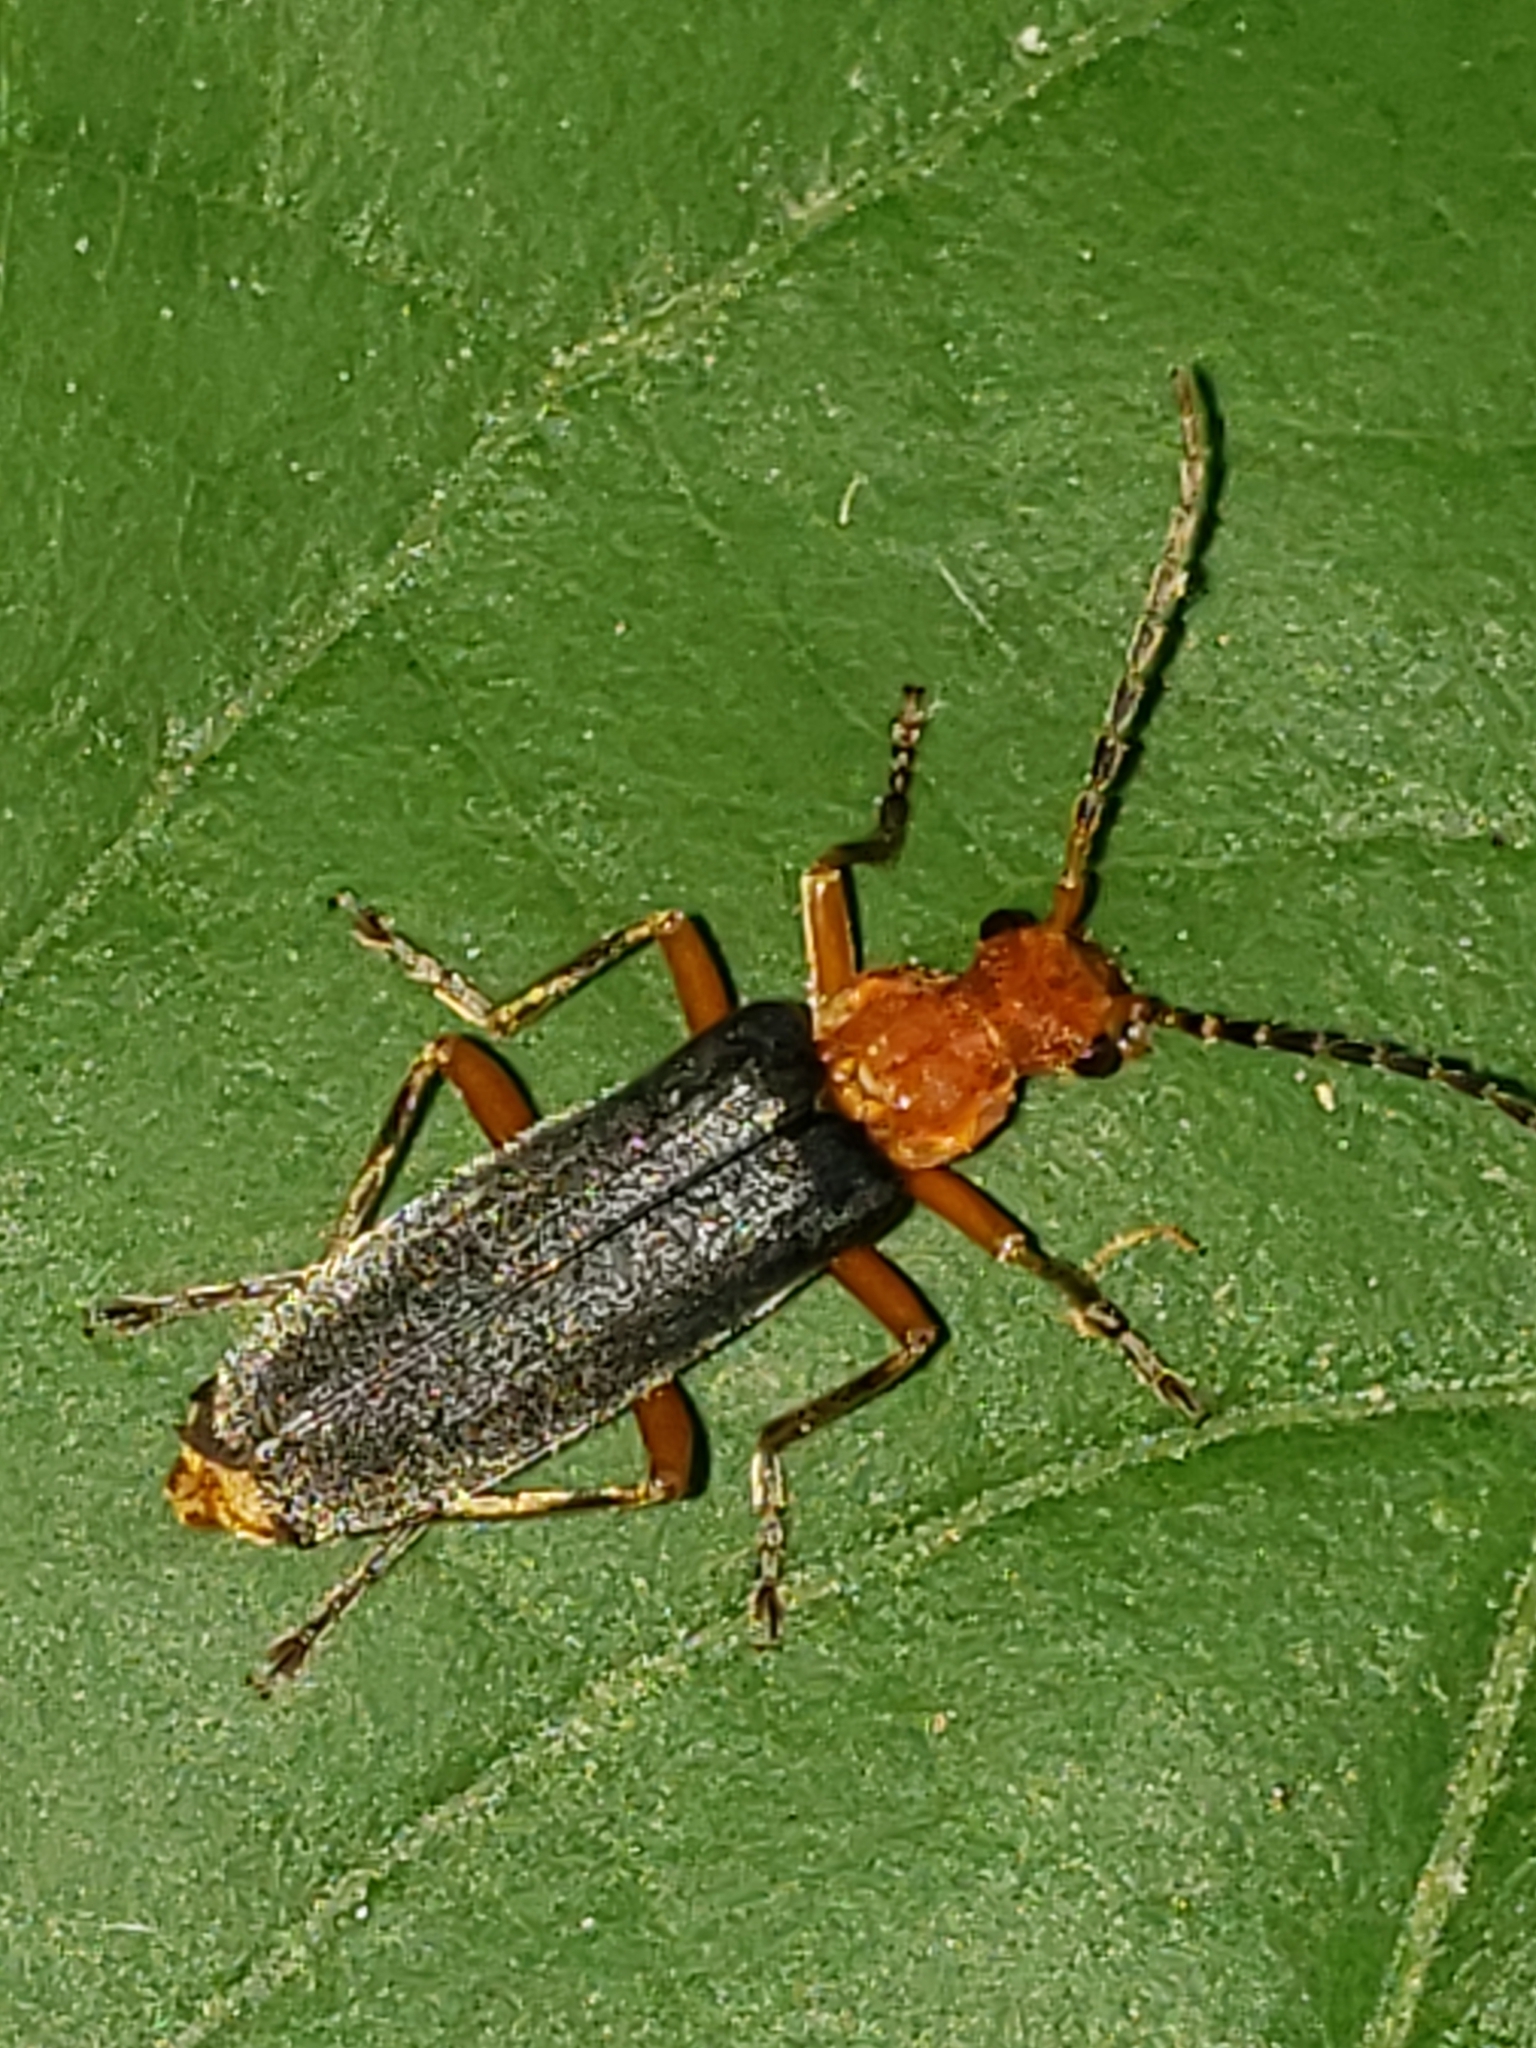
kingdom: Animalia
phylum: Arthropoda
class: Insecta
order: Coleoptera
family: Cantharidae
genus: Podabrus
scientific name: Podabrus tomentosus
